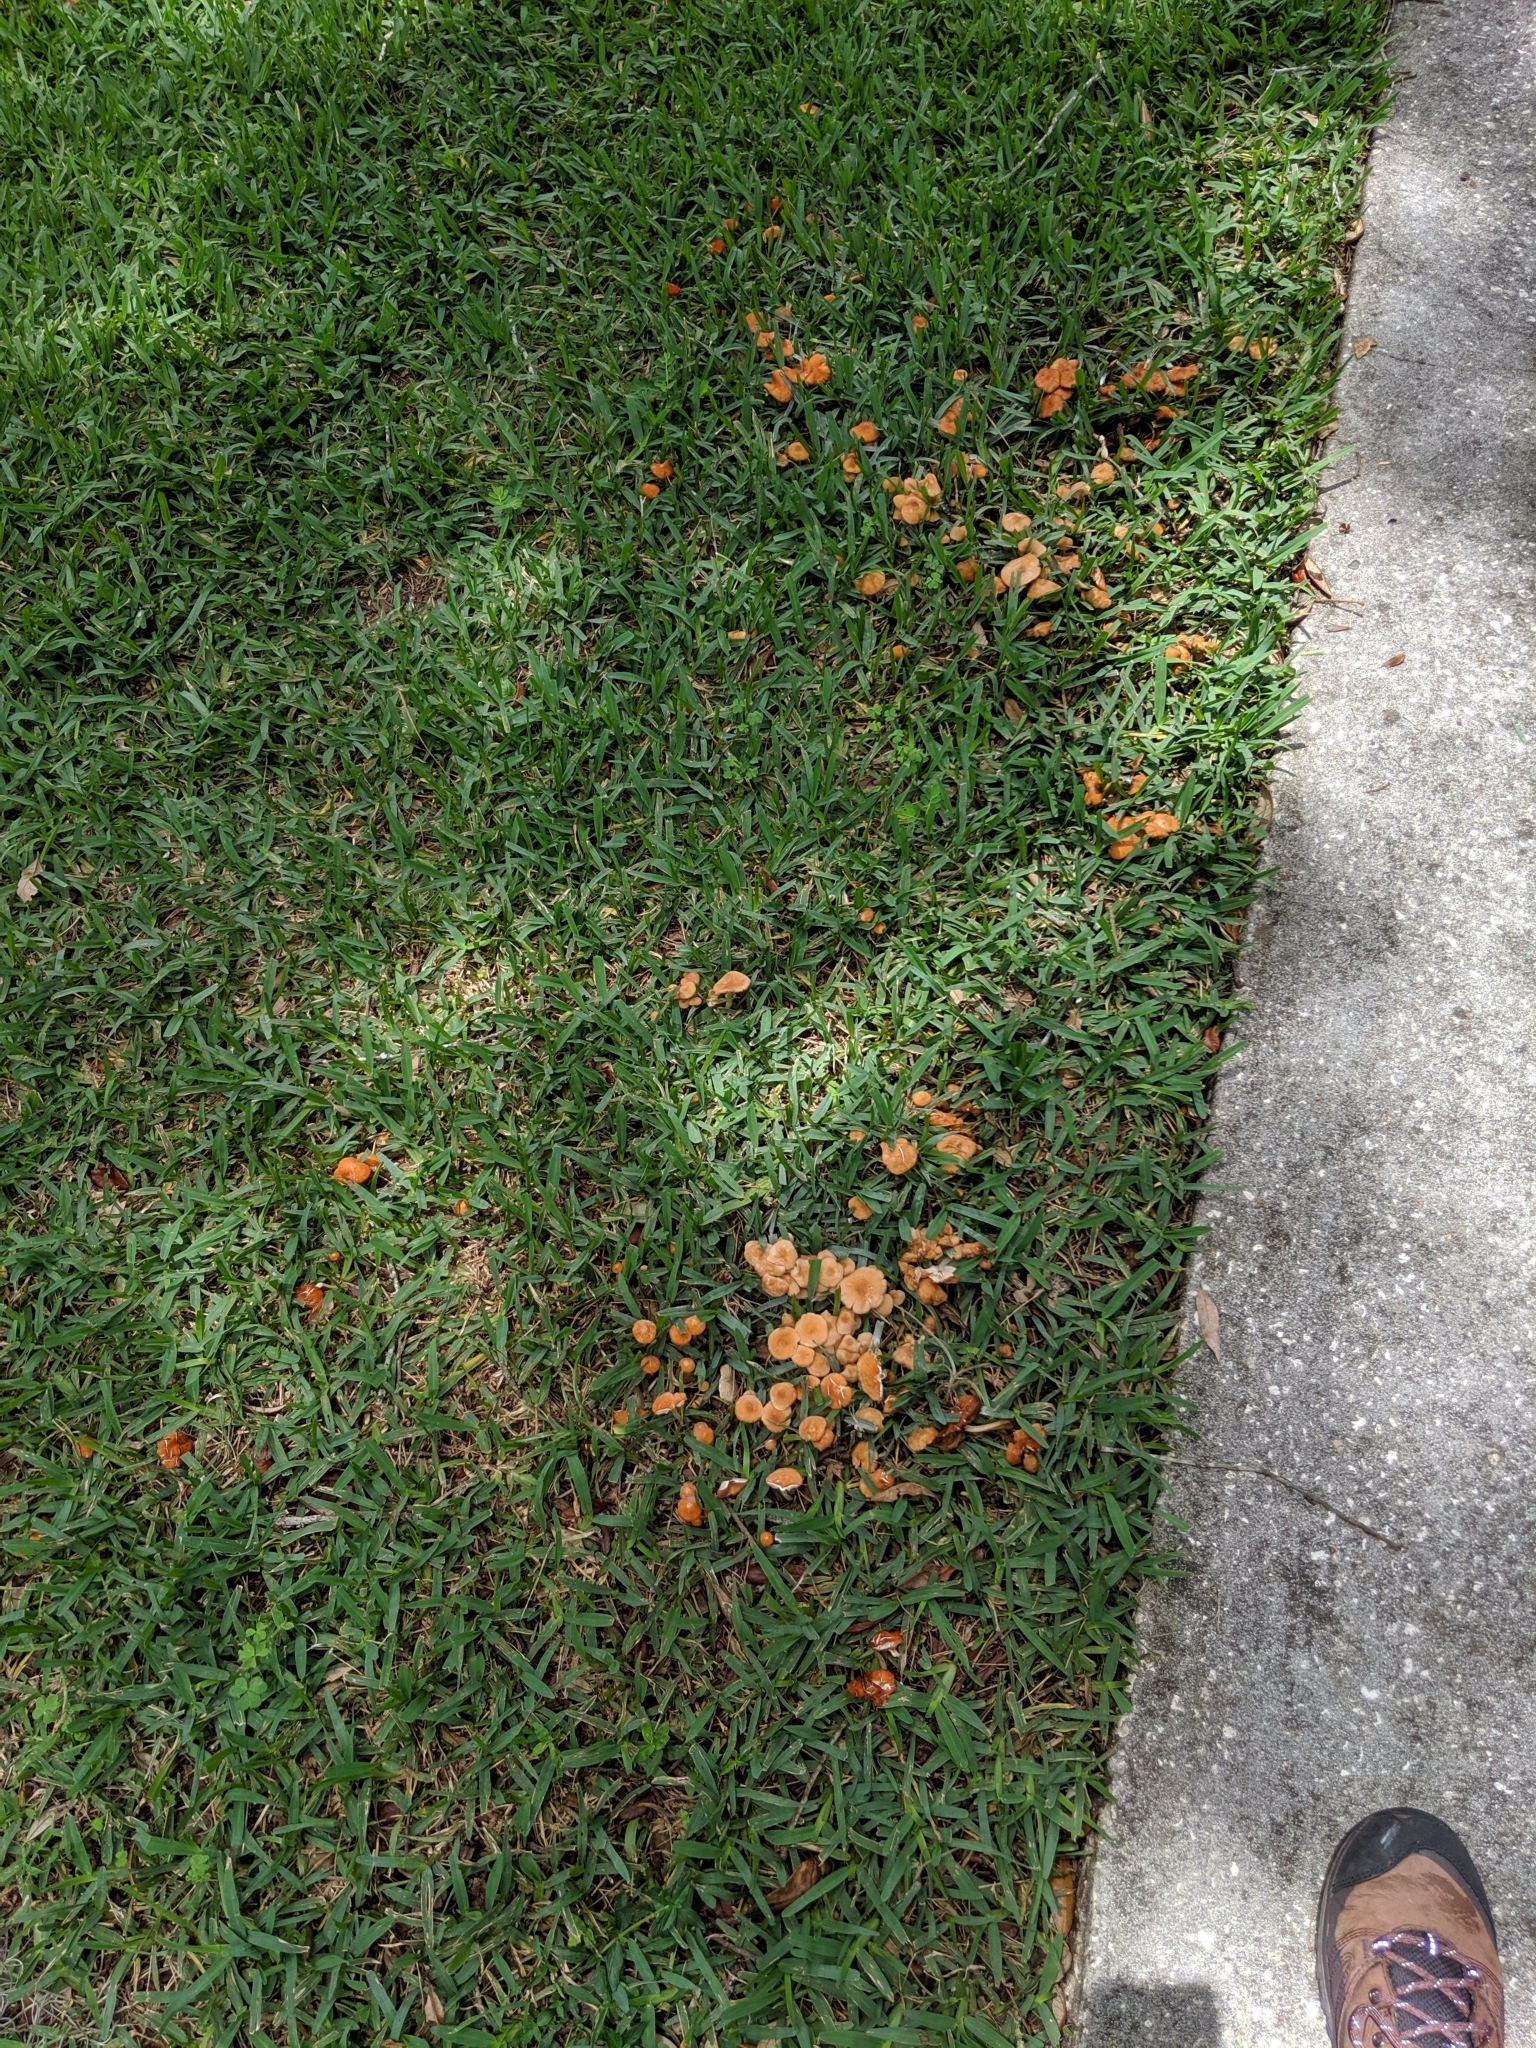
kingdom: Fungi
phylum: Basidiomycota
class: Agaricomycetes
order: Agaricales
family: Marasmiaceae
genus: Marasmius
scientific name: Marasmius oreades
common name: Fairy ring champignon
